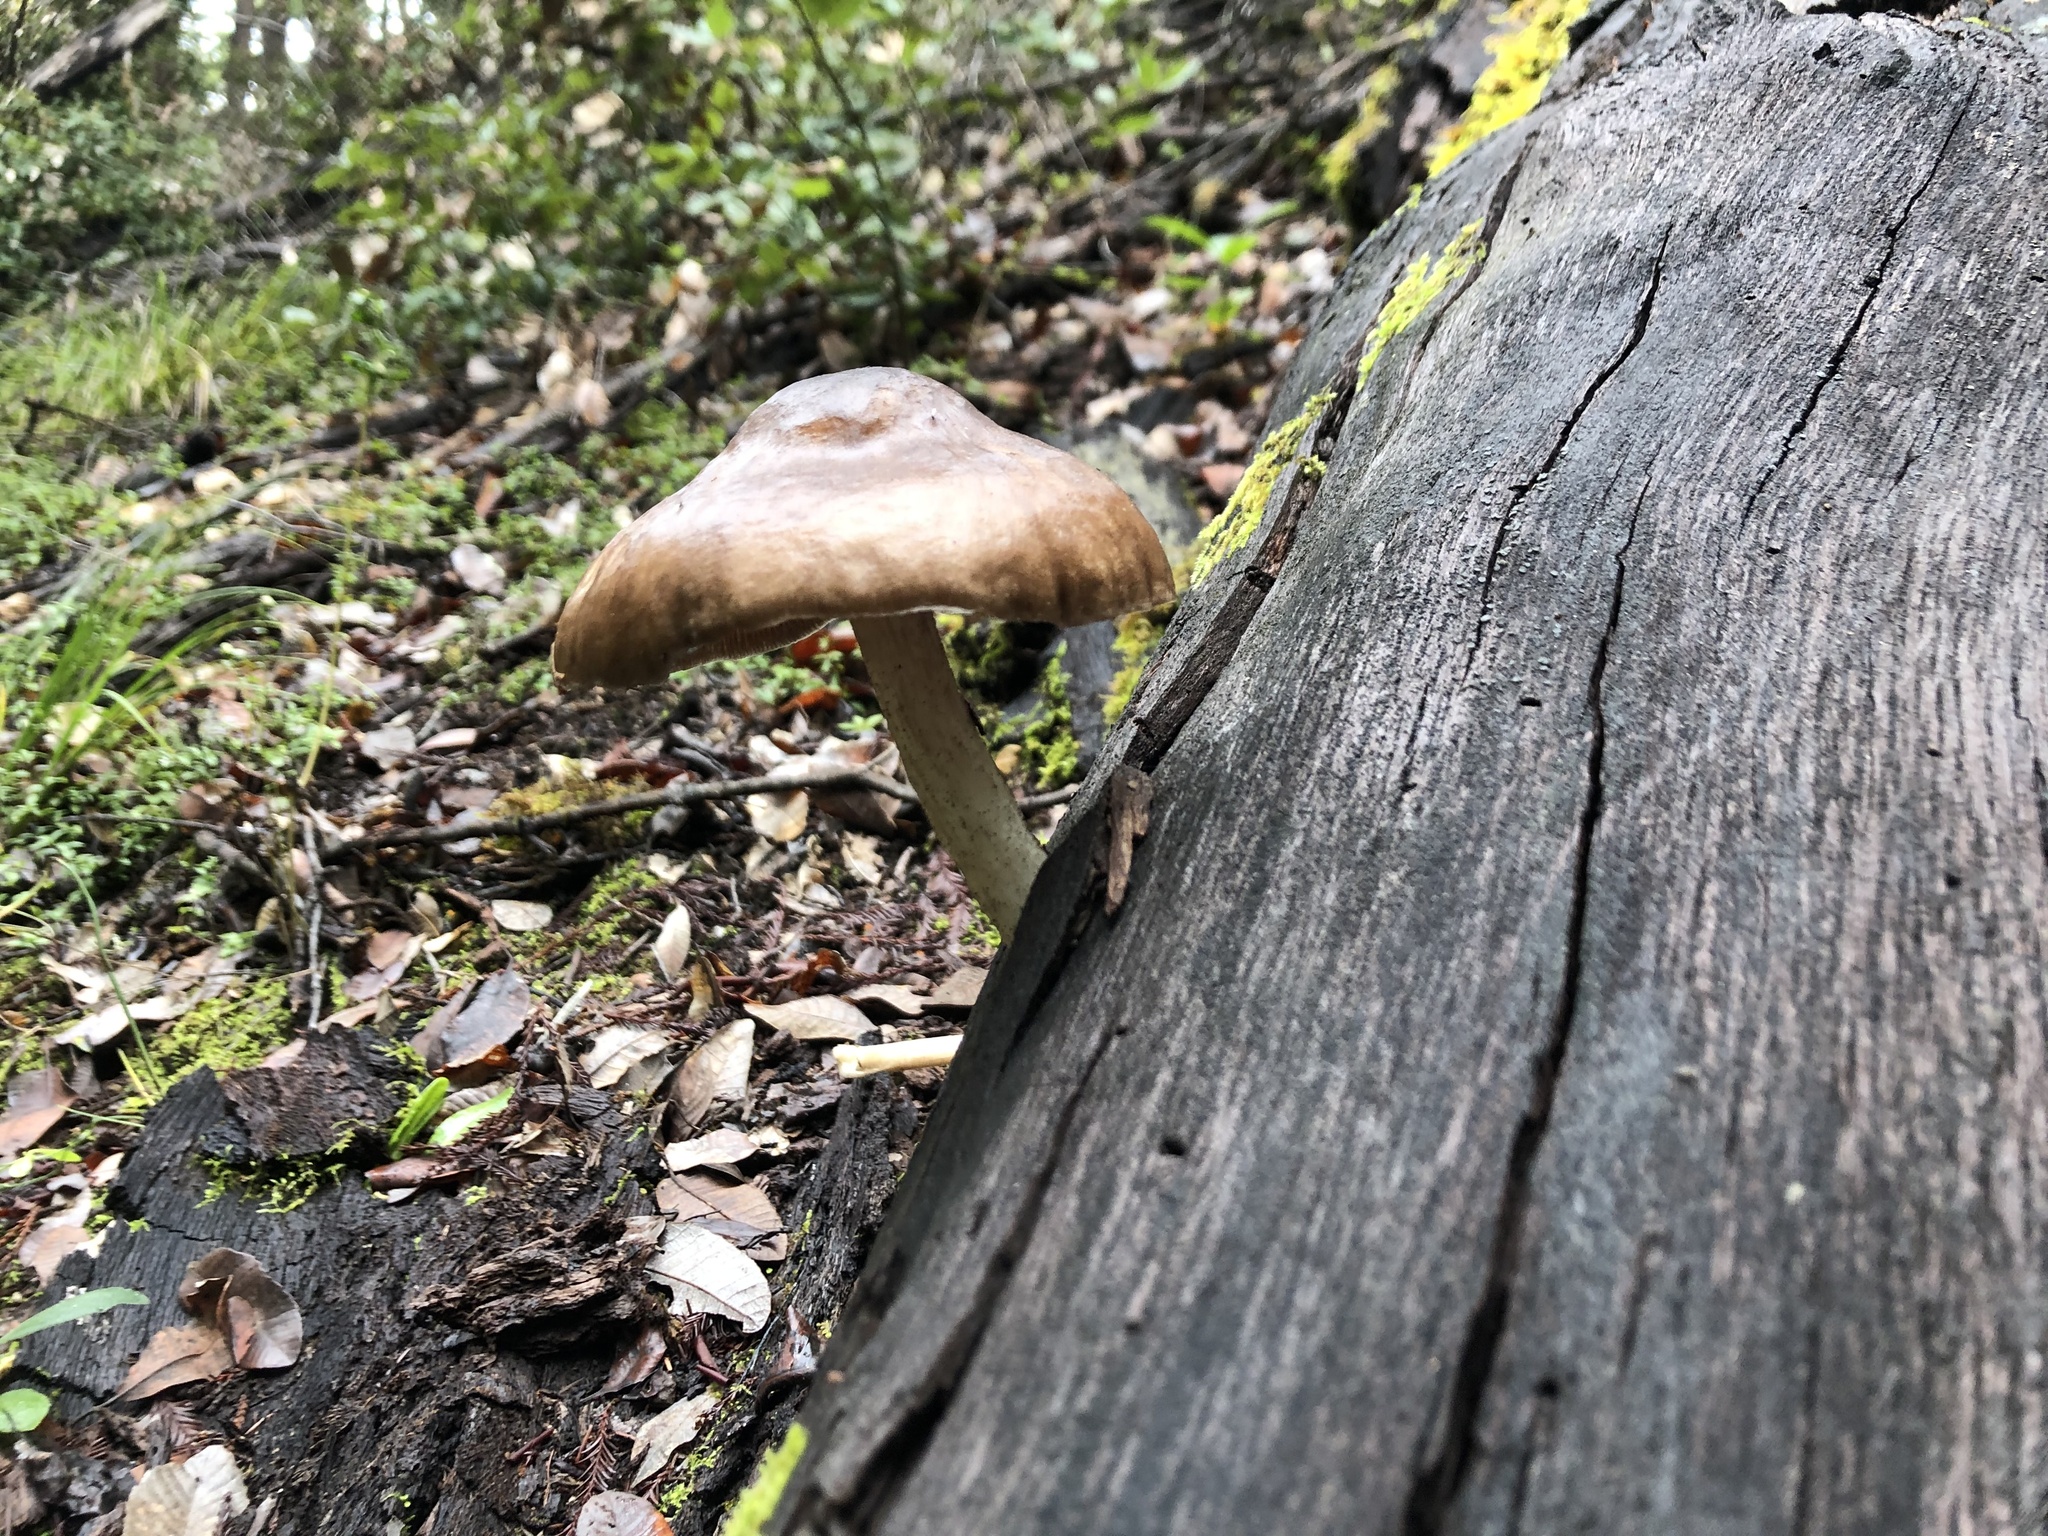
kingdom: Fungi
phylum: Basidiomycota
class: Agaricomycetes
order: Agaricales
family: Pluteaceae
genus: Pluteus
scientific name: Pluteus exilis
